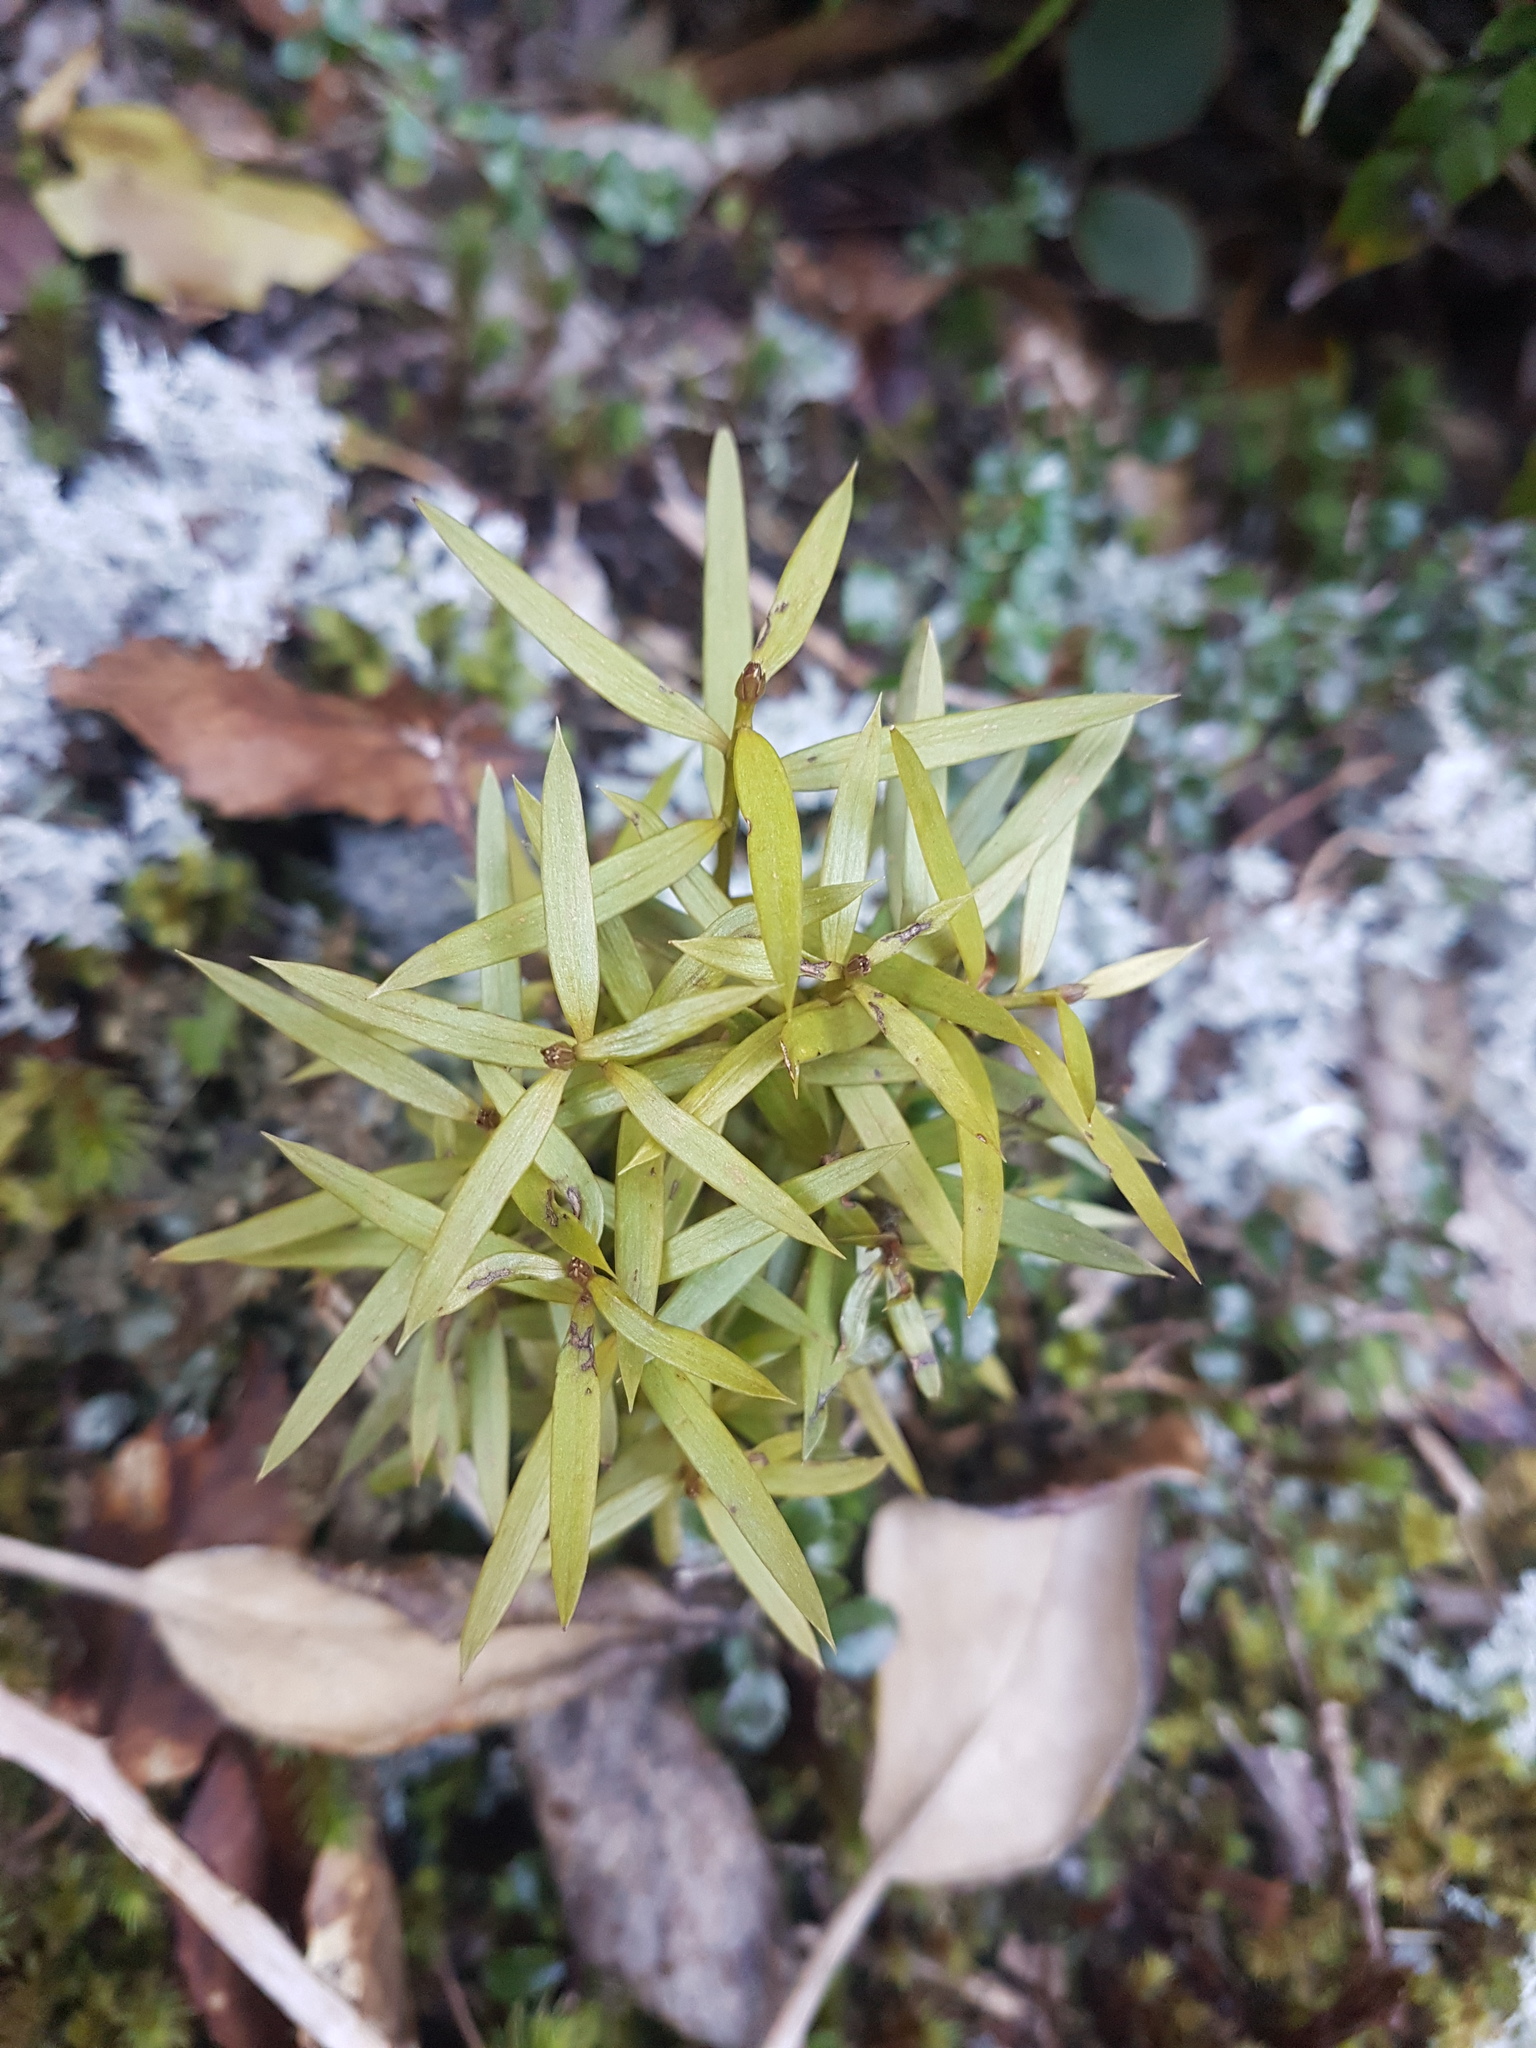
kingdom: Plantae
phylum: Tracheophyta
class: Pinopsida
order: Pinales
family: Podocarpaceae
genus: Podocarpus
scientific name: Podocarpus laetus
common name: Hall's totara
